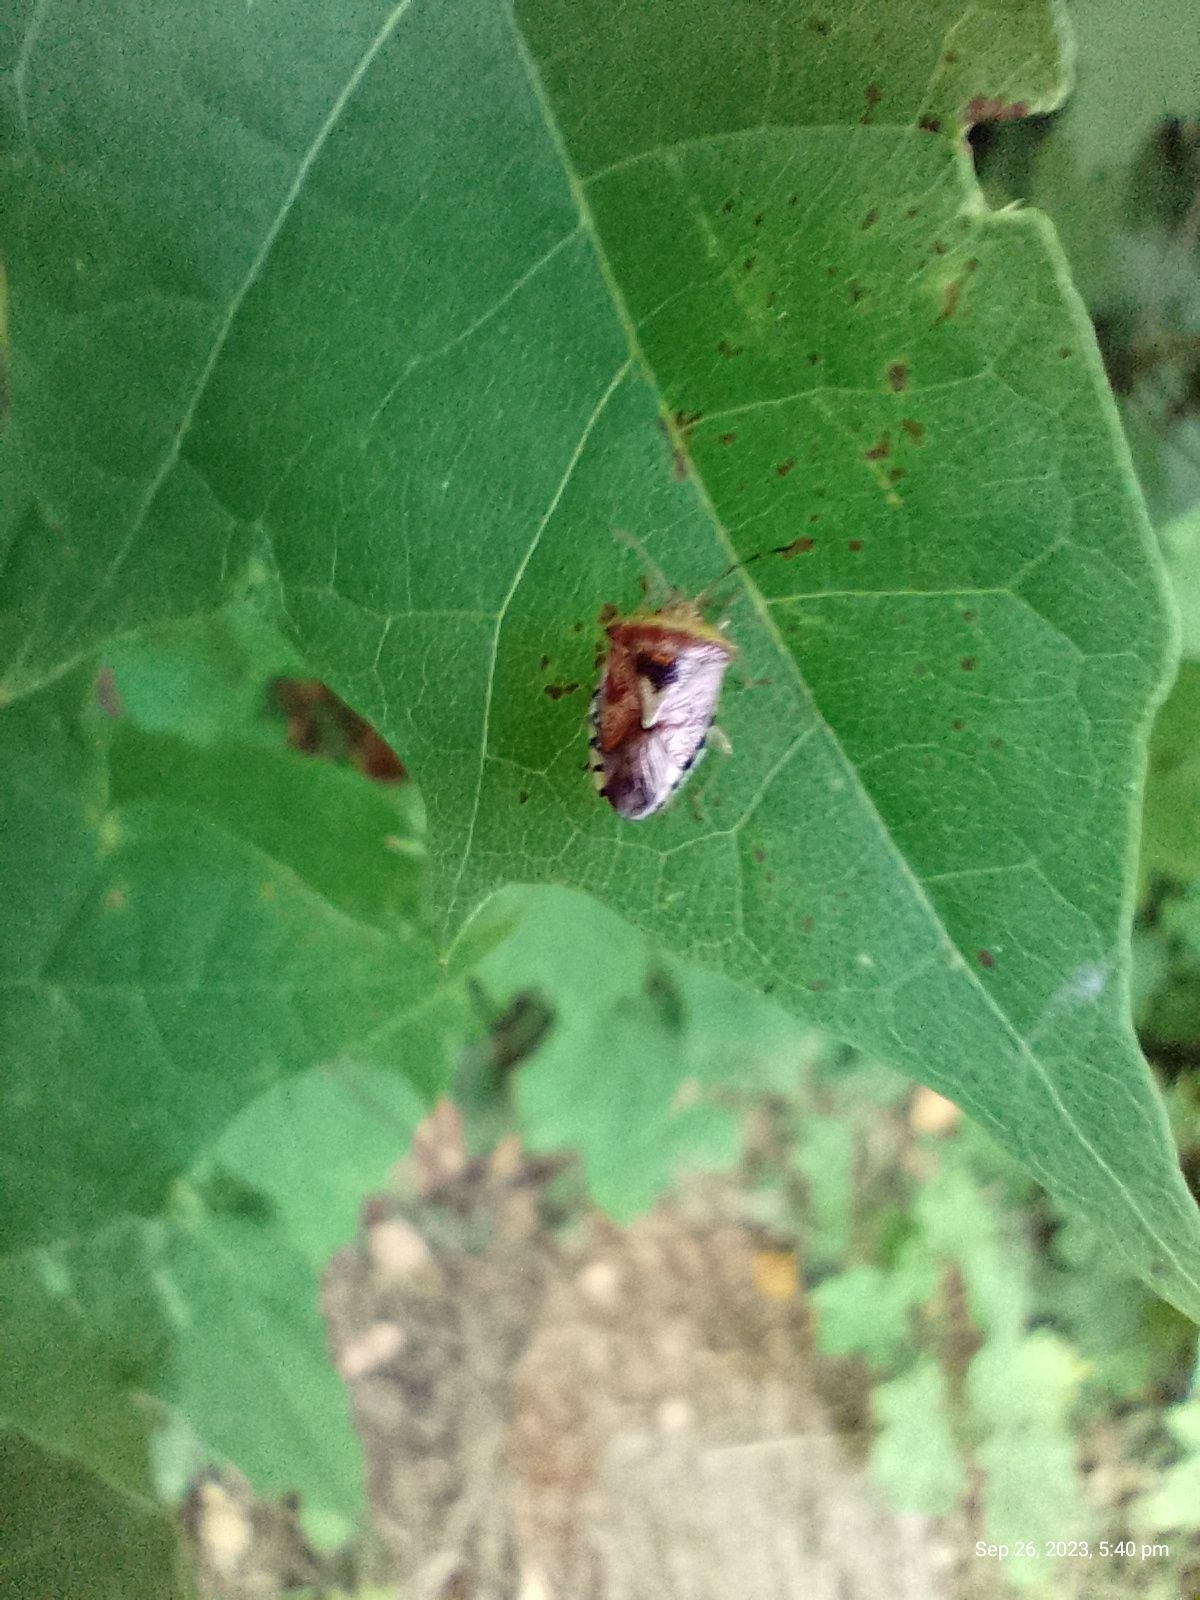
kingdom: Animalia
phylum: Arthropoda
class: Insecta
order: Hemiptera
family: Acanthosomatidae
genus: Elasmucha
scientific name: Elasmucha grisea
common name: Parent bug
